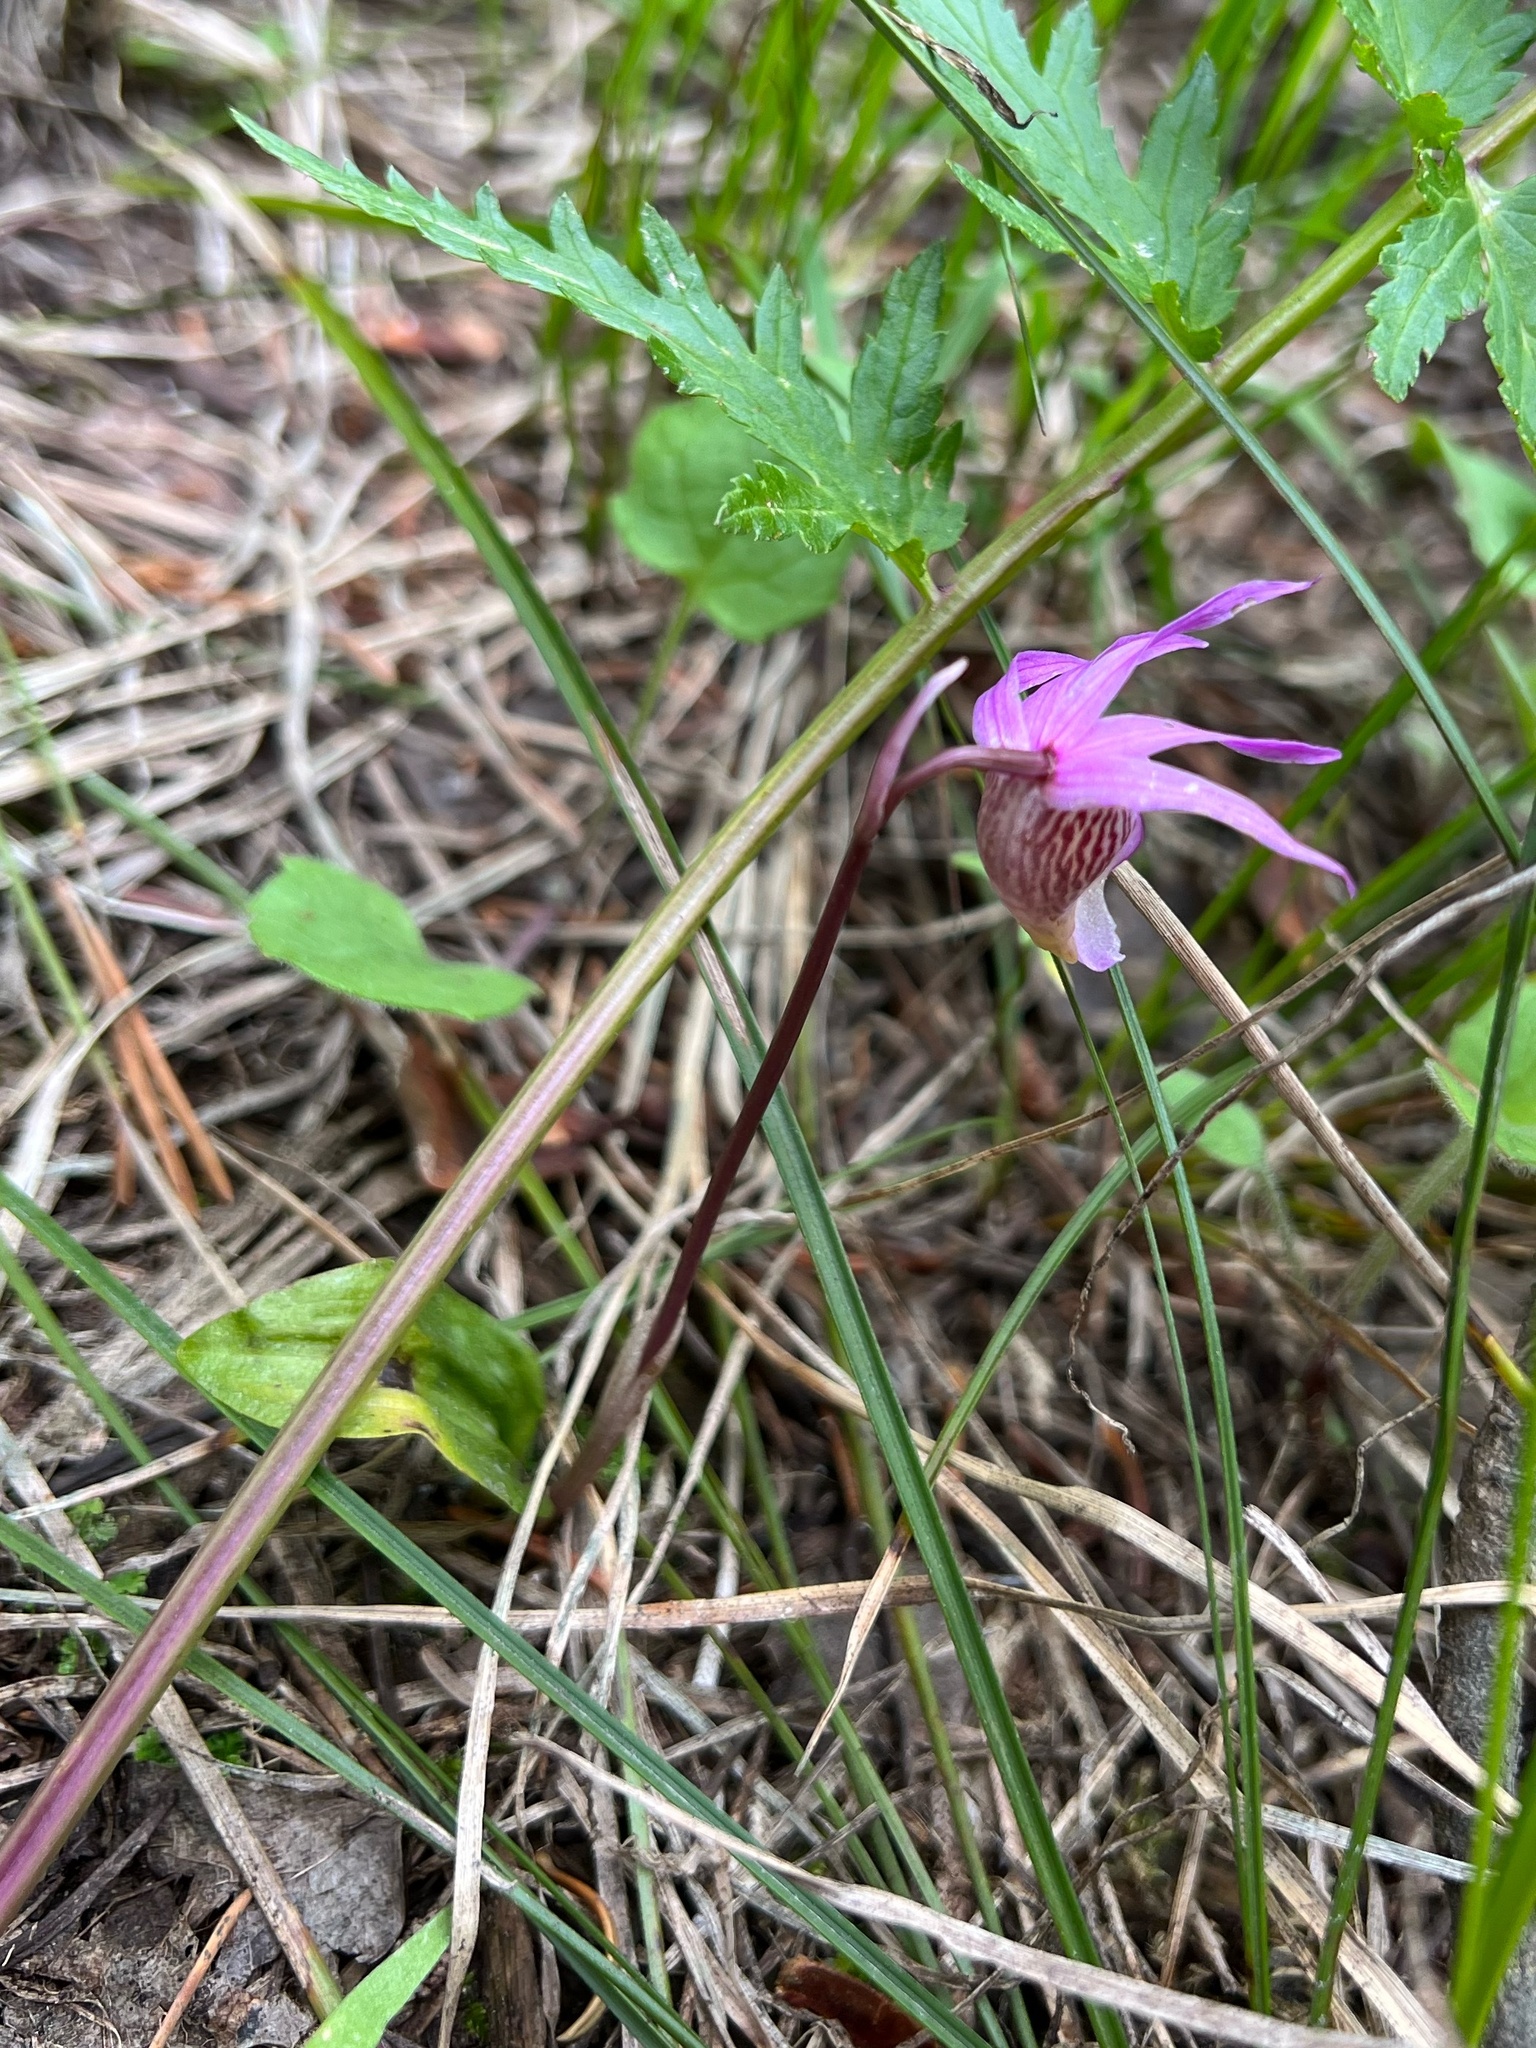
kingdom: Plantae
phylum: Tracheophyta
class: Liliopsida
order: Asparagales
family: Orchidaceae
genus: Calypso
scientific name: Calypso bulbosa
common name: Calypso
